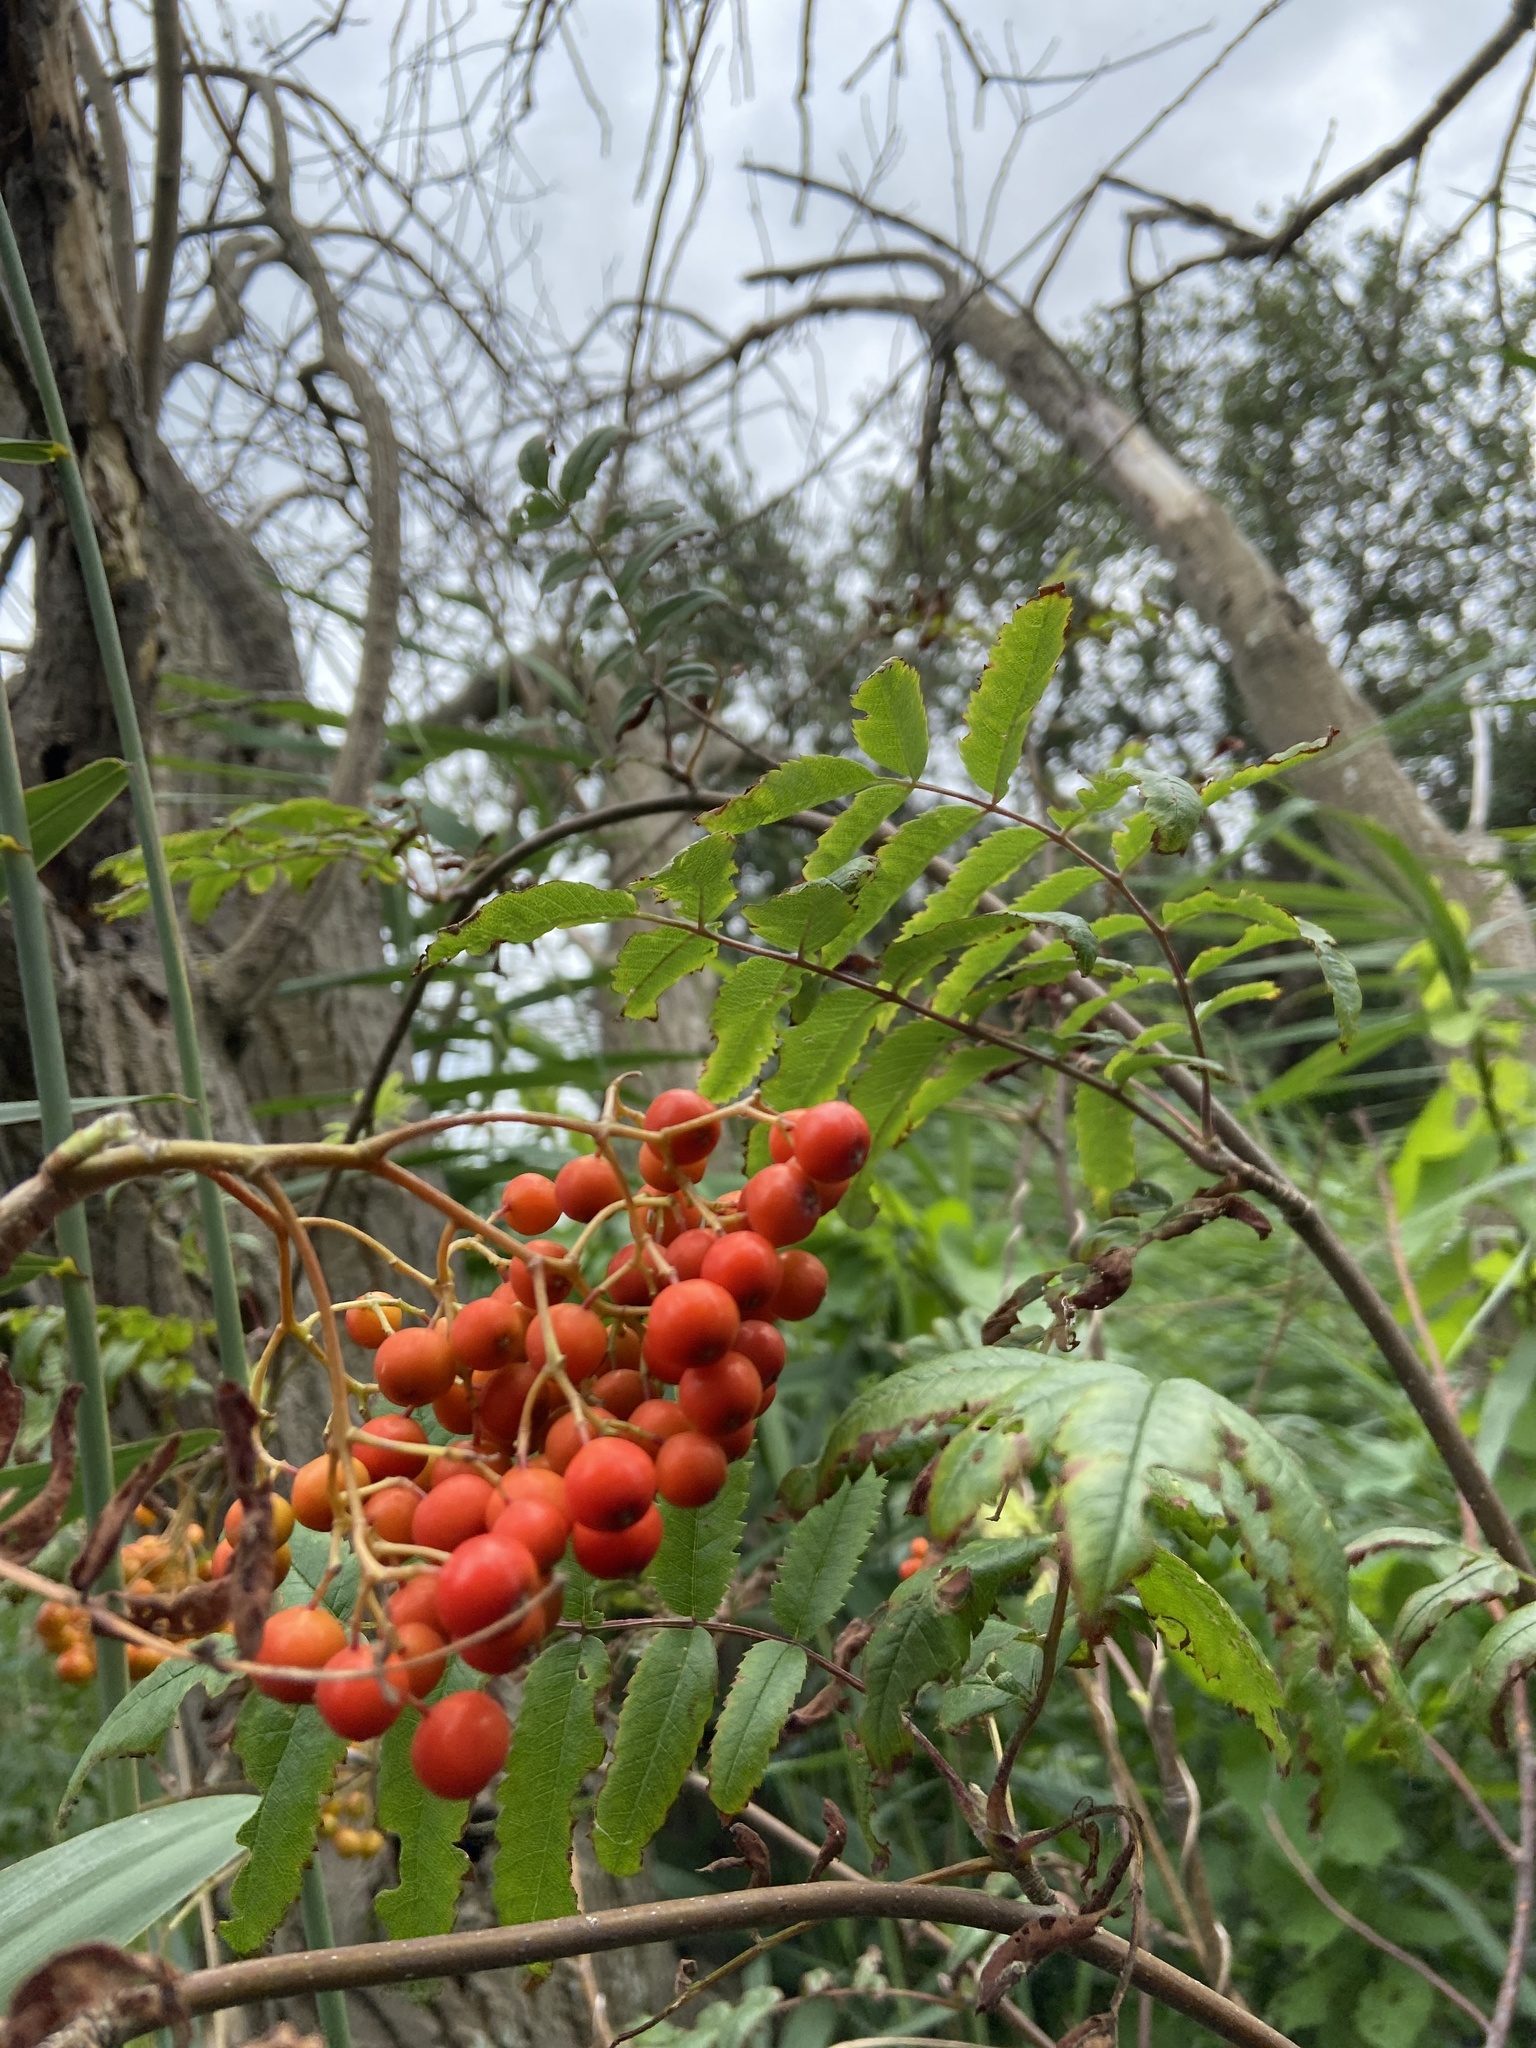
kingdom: Plantae
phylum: Tracheophyta
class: Magnoliopsida
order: Rosales
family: Rosaceae
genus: Sorbus
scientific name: Sorbus aucuparia
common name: Rowan
